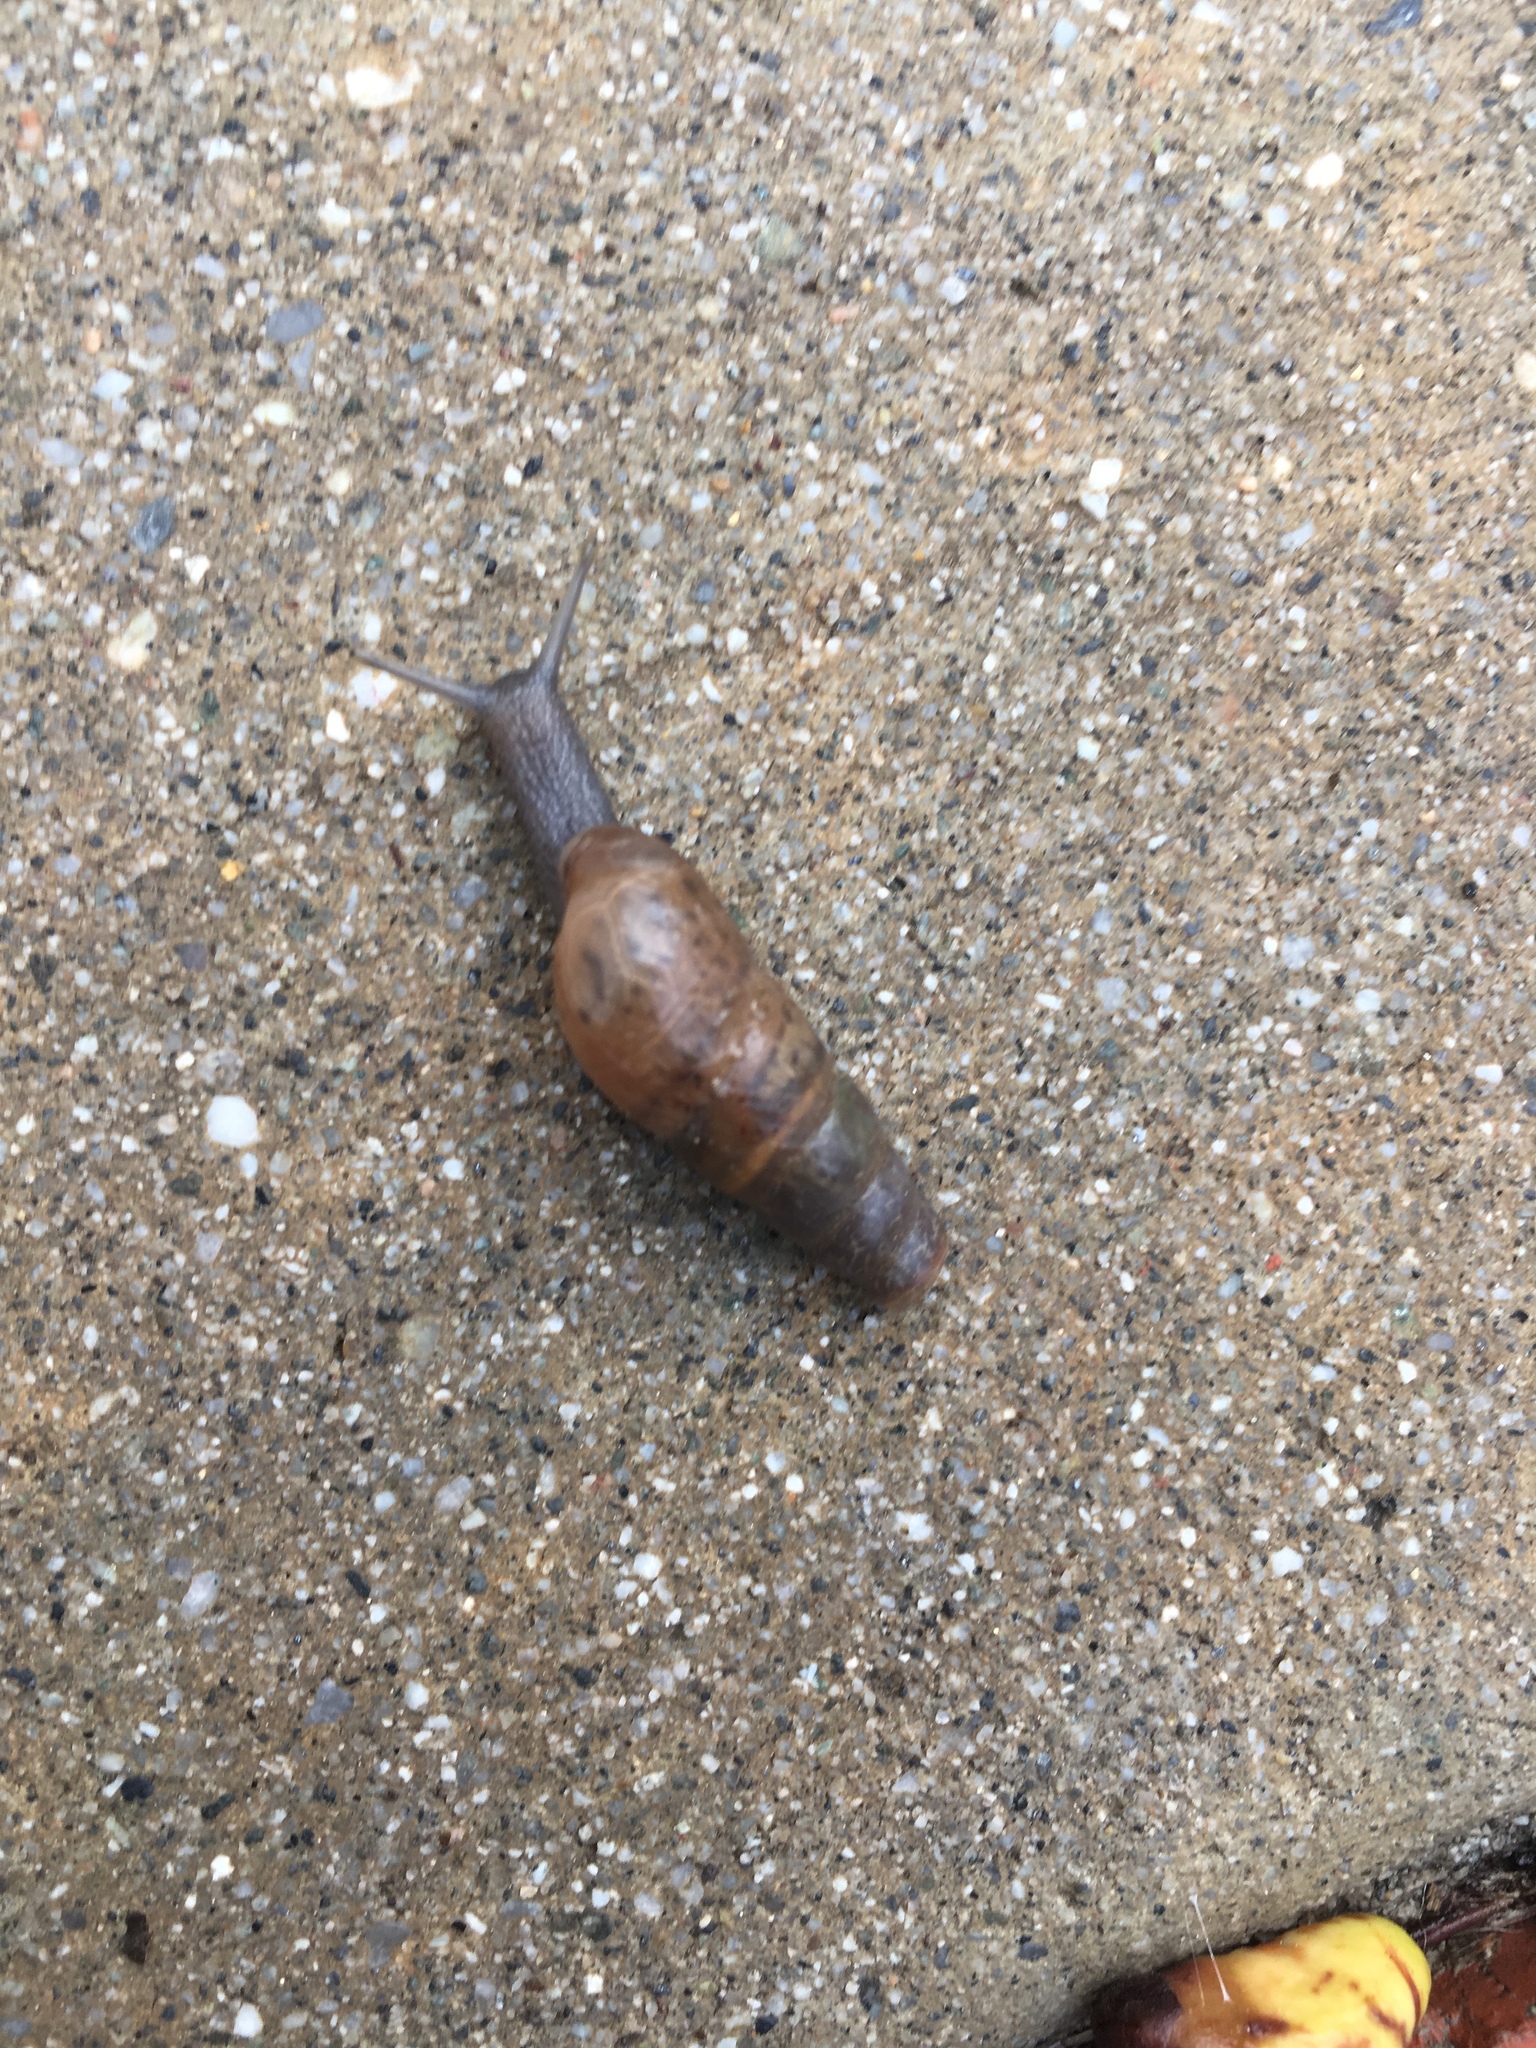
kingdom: Animalia
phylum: Mollusca
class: Gastropoda
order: Stylommatophora
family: Achatinidae
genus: Rumina
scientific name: Rumina decollata
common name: Decollate snail
